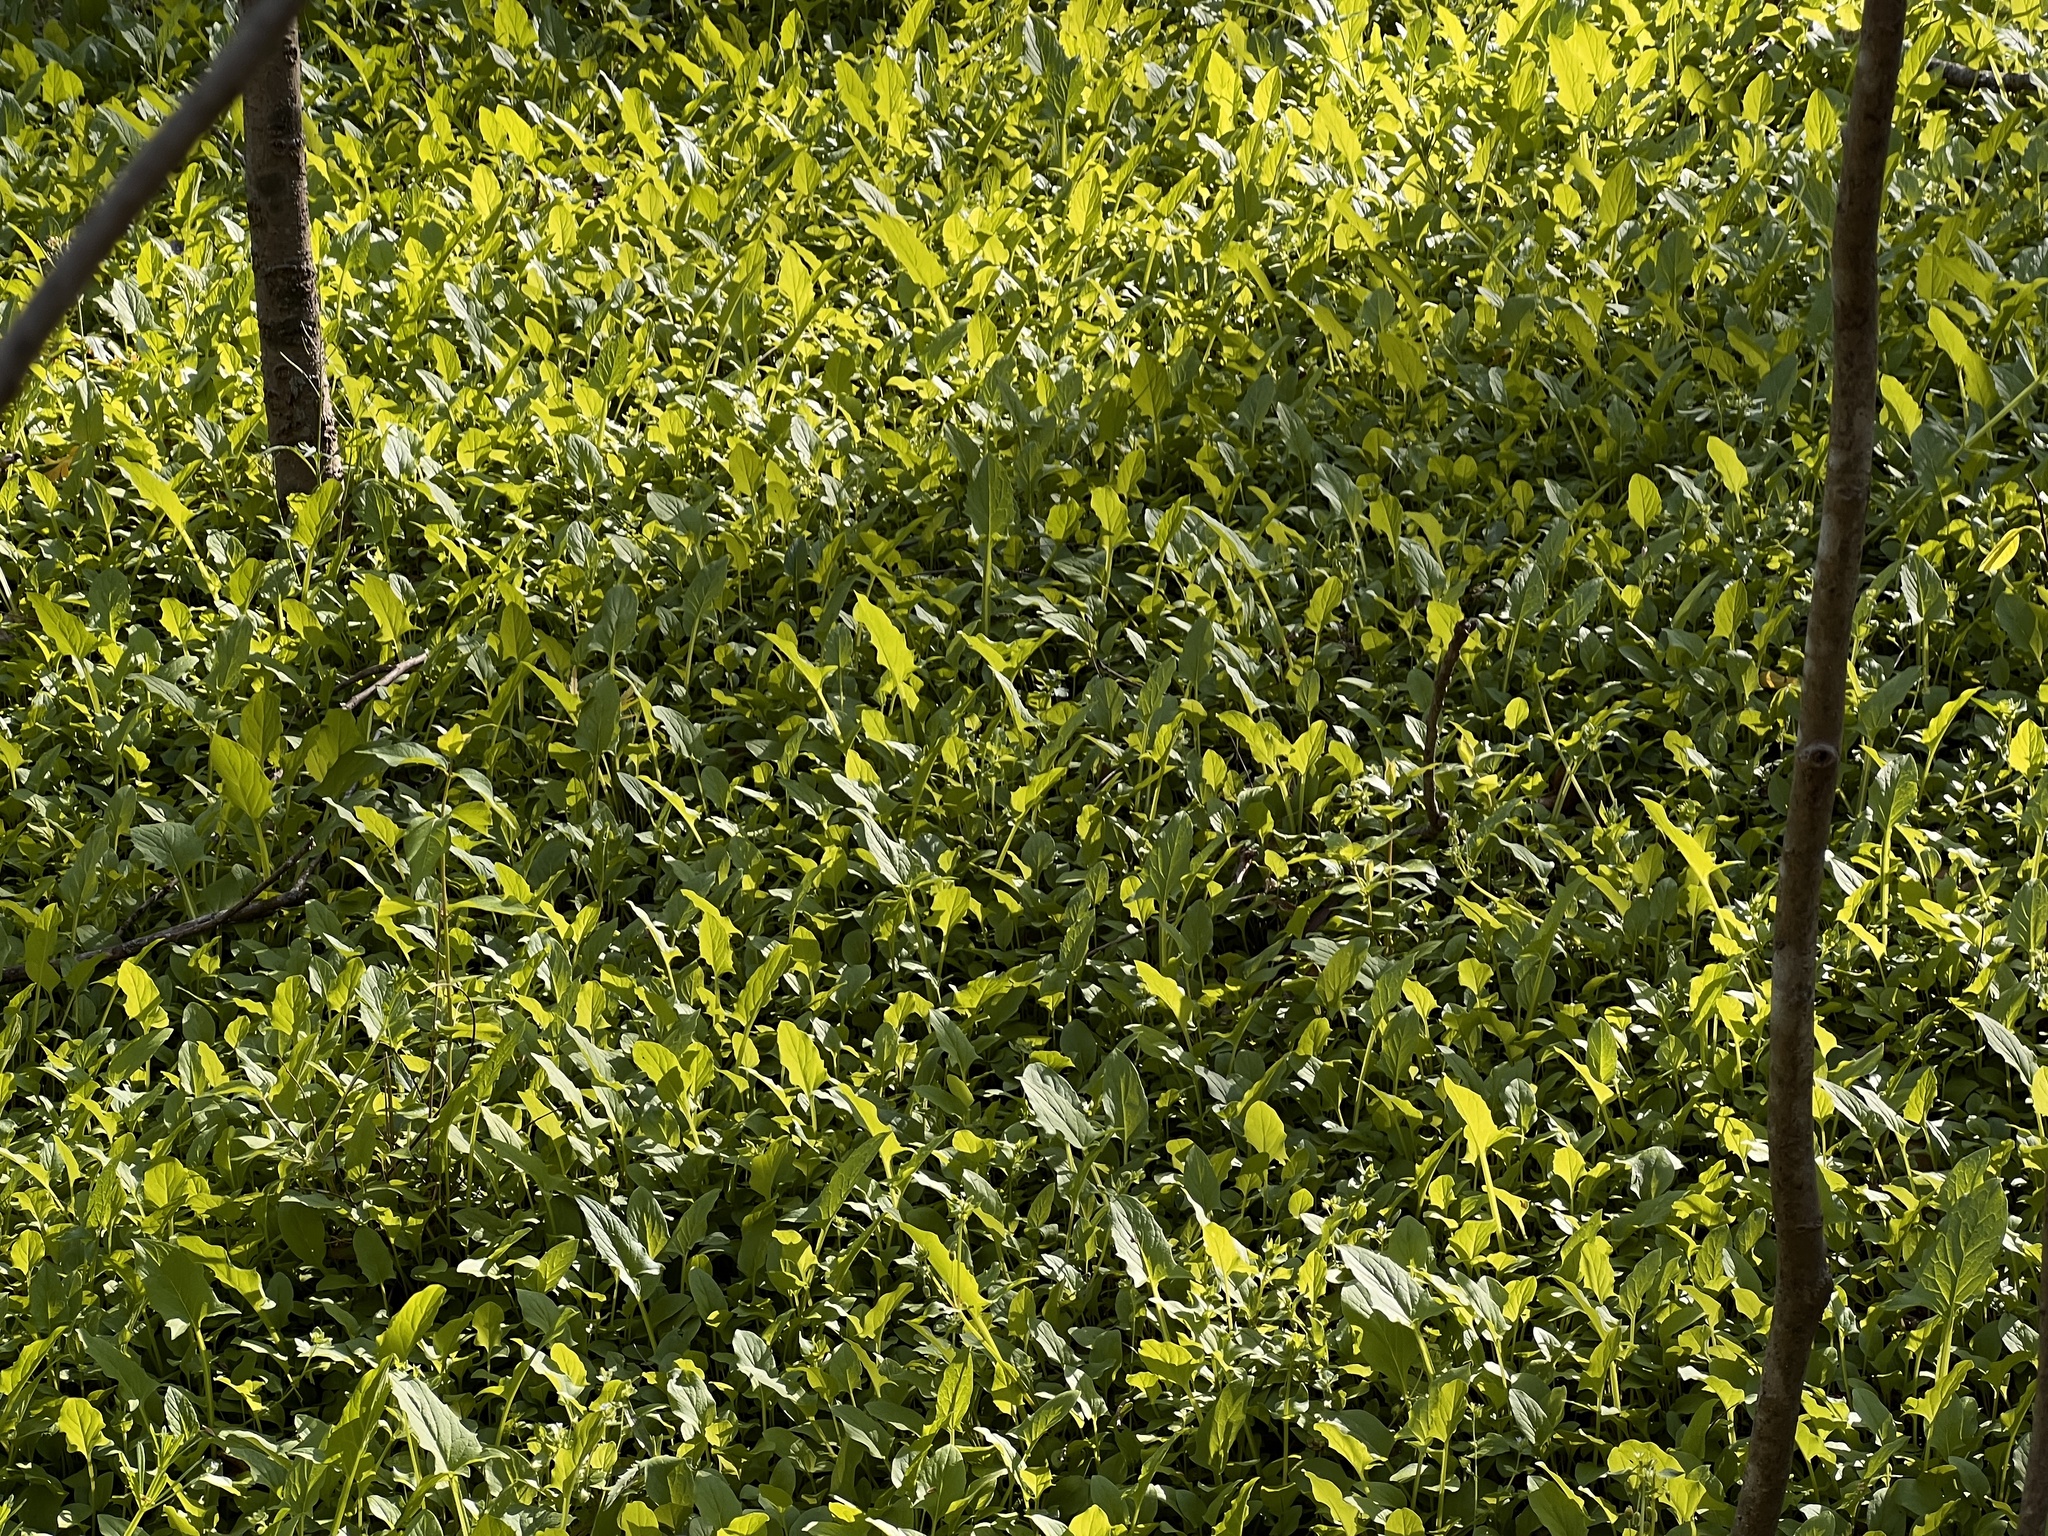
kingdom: Plantae
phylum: Tracheophyta
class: Magnoliopsida
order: Asterales
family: Asteraceae
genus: Nabalus
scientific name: Nabalus crepidineus
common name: Nodding rattlesnakeroot
